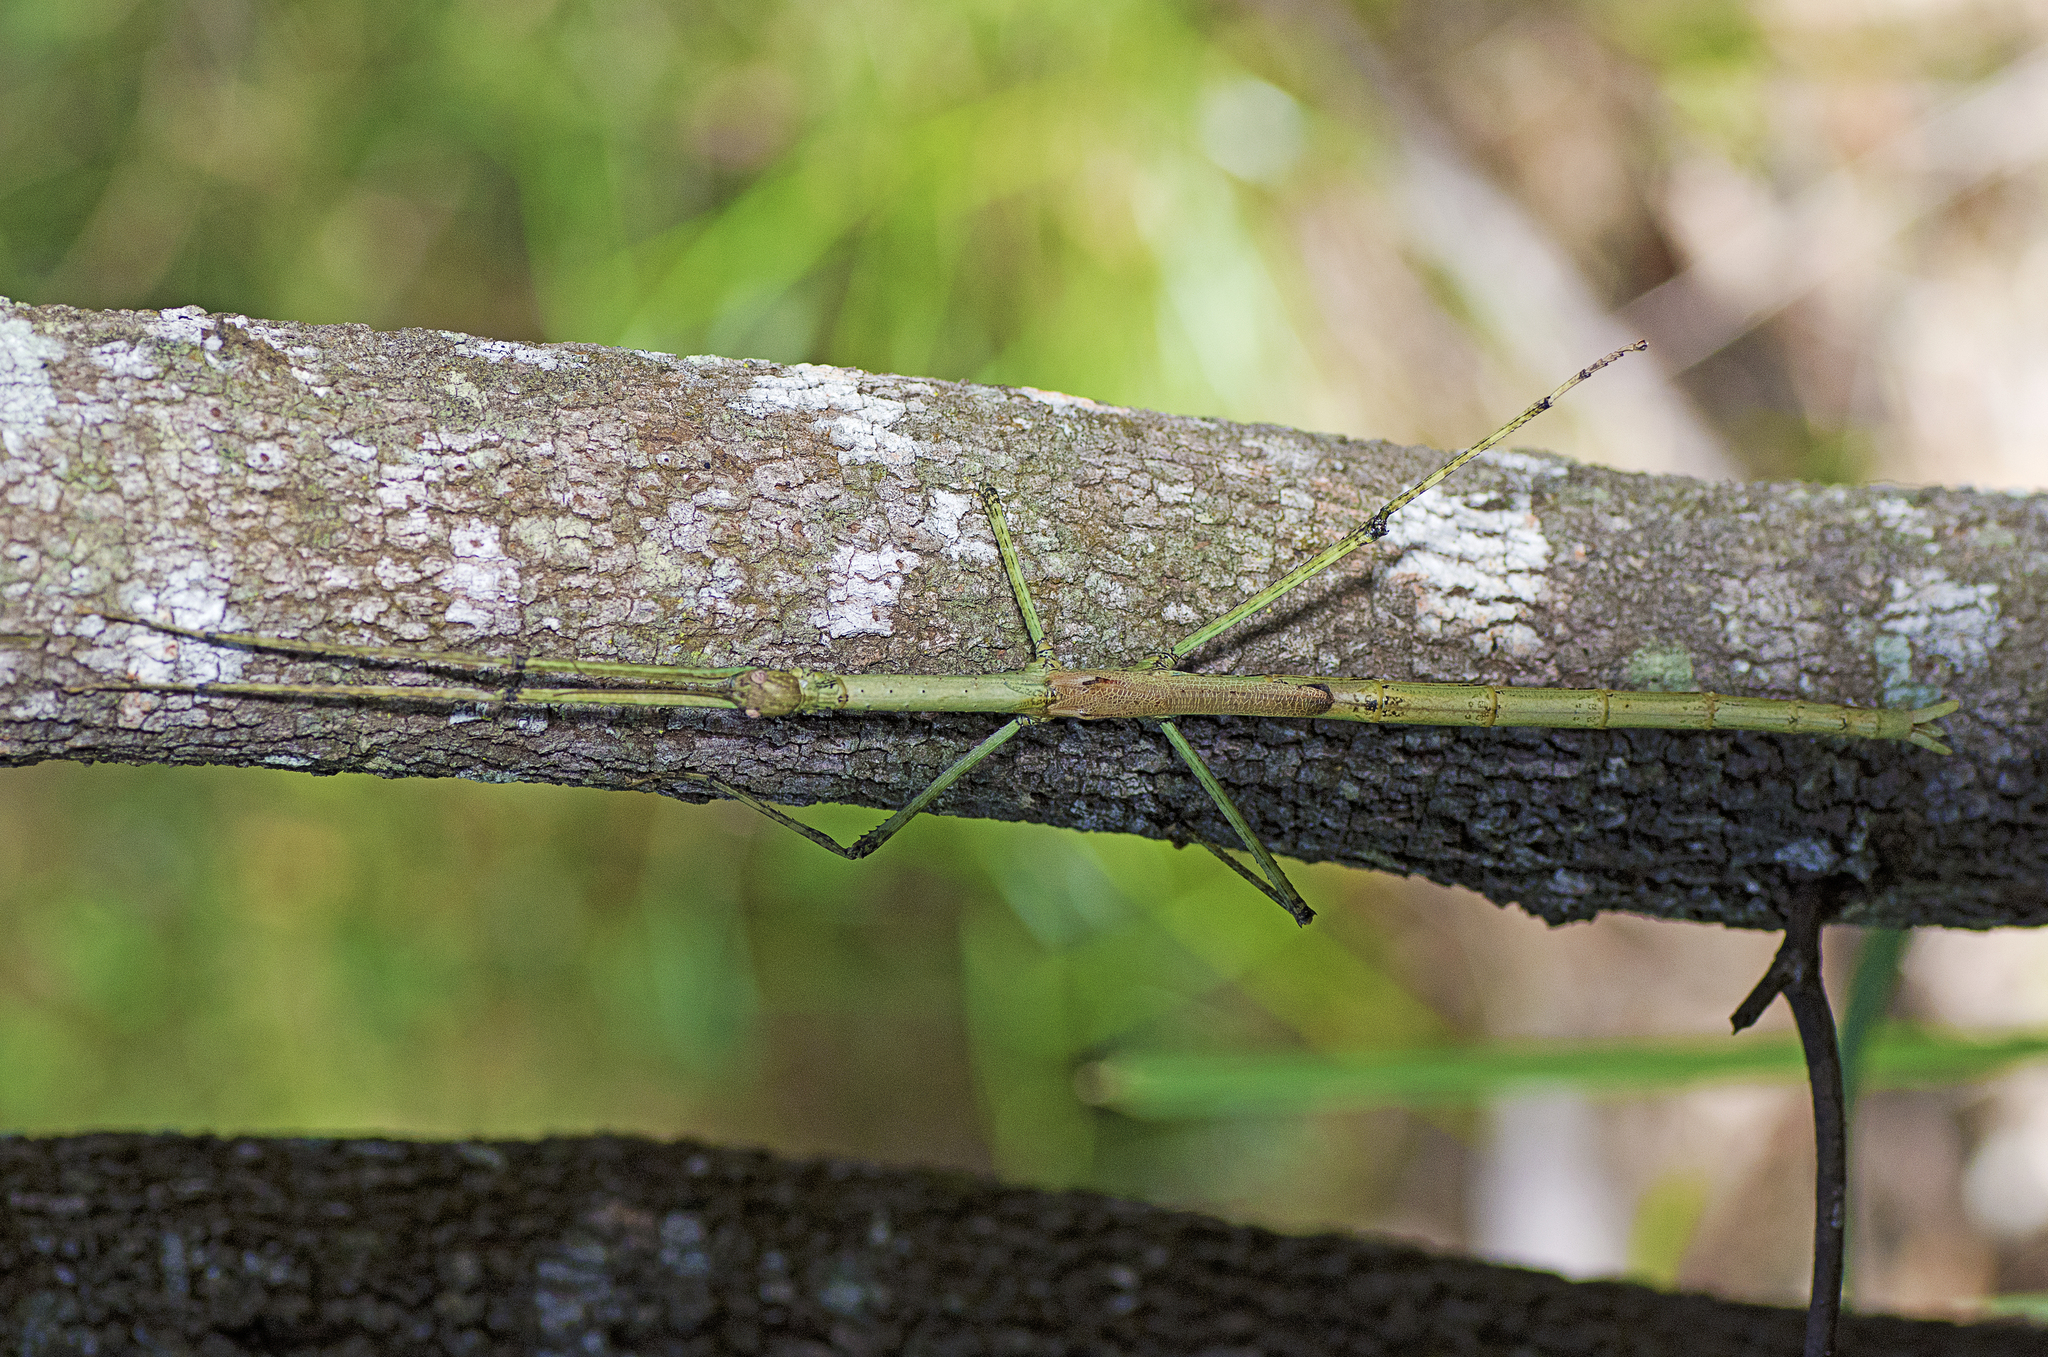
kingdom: Animalia
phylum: Arthropoda
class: Insecta
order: Phasmida
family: Phasmatidae
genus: Anchiale
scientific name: Anchiale austrotessulata
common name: Tessellated stick-insect
